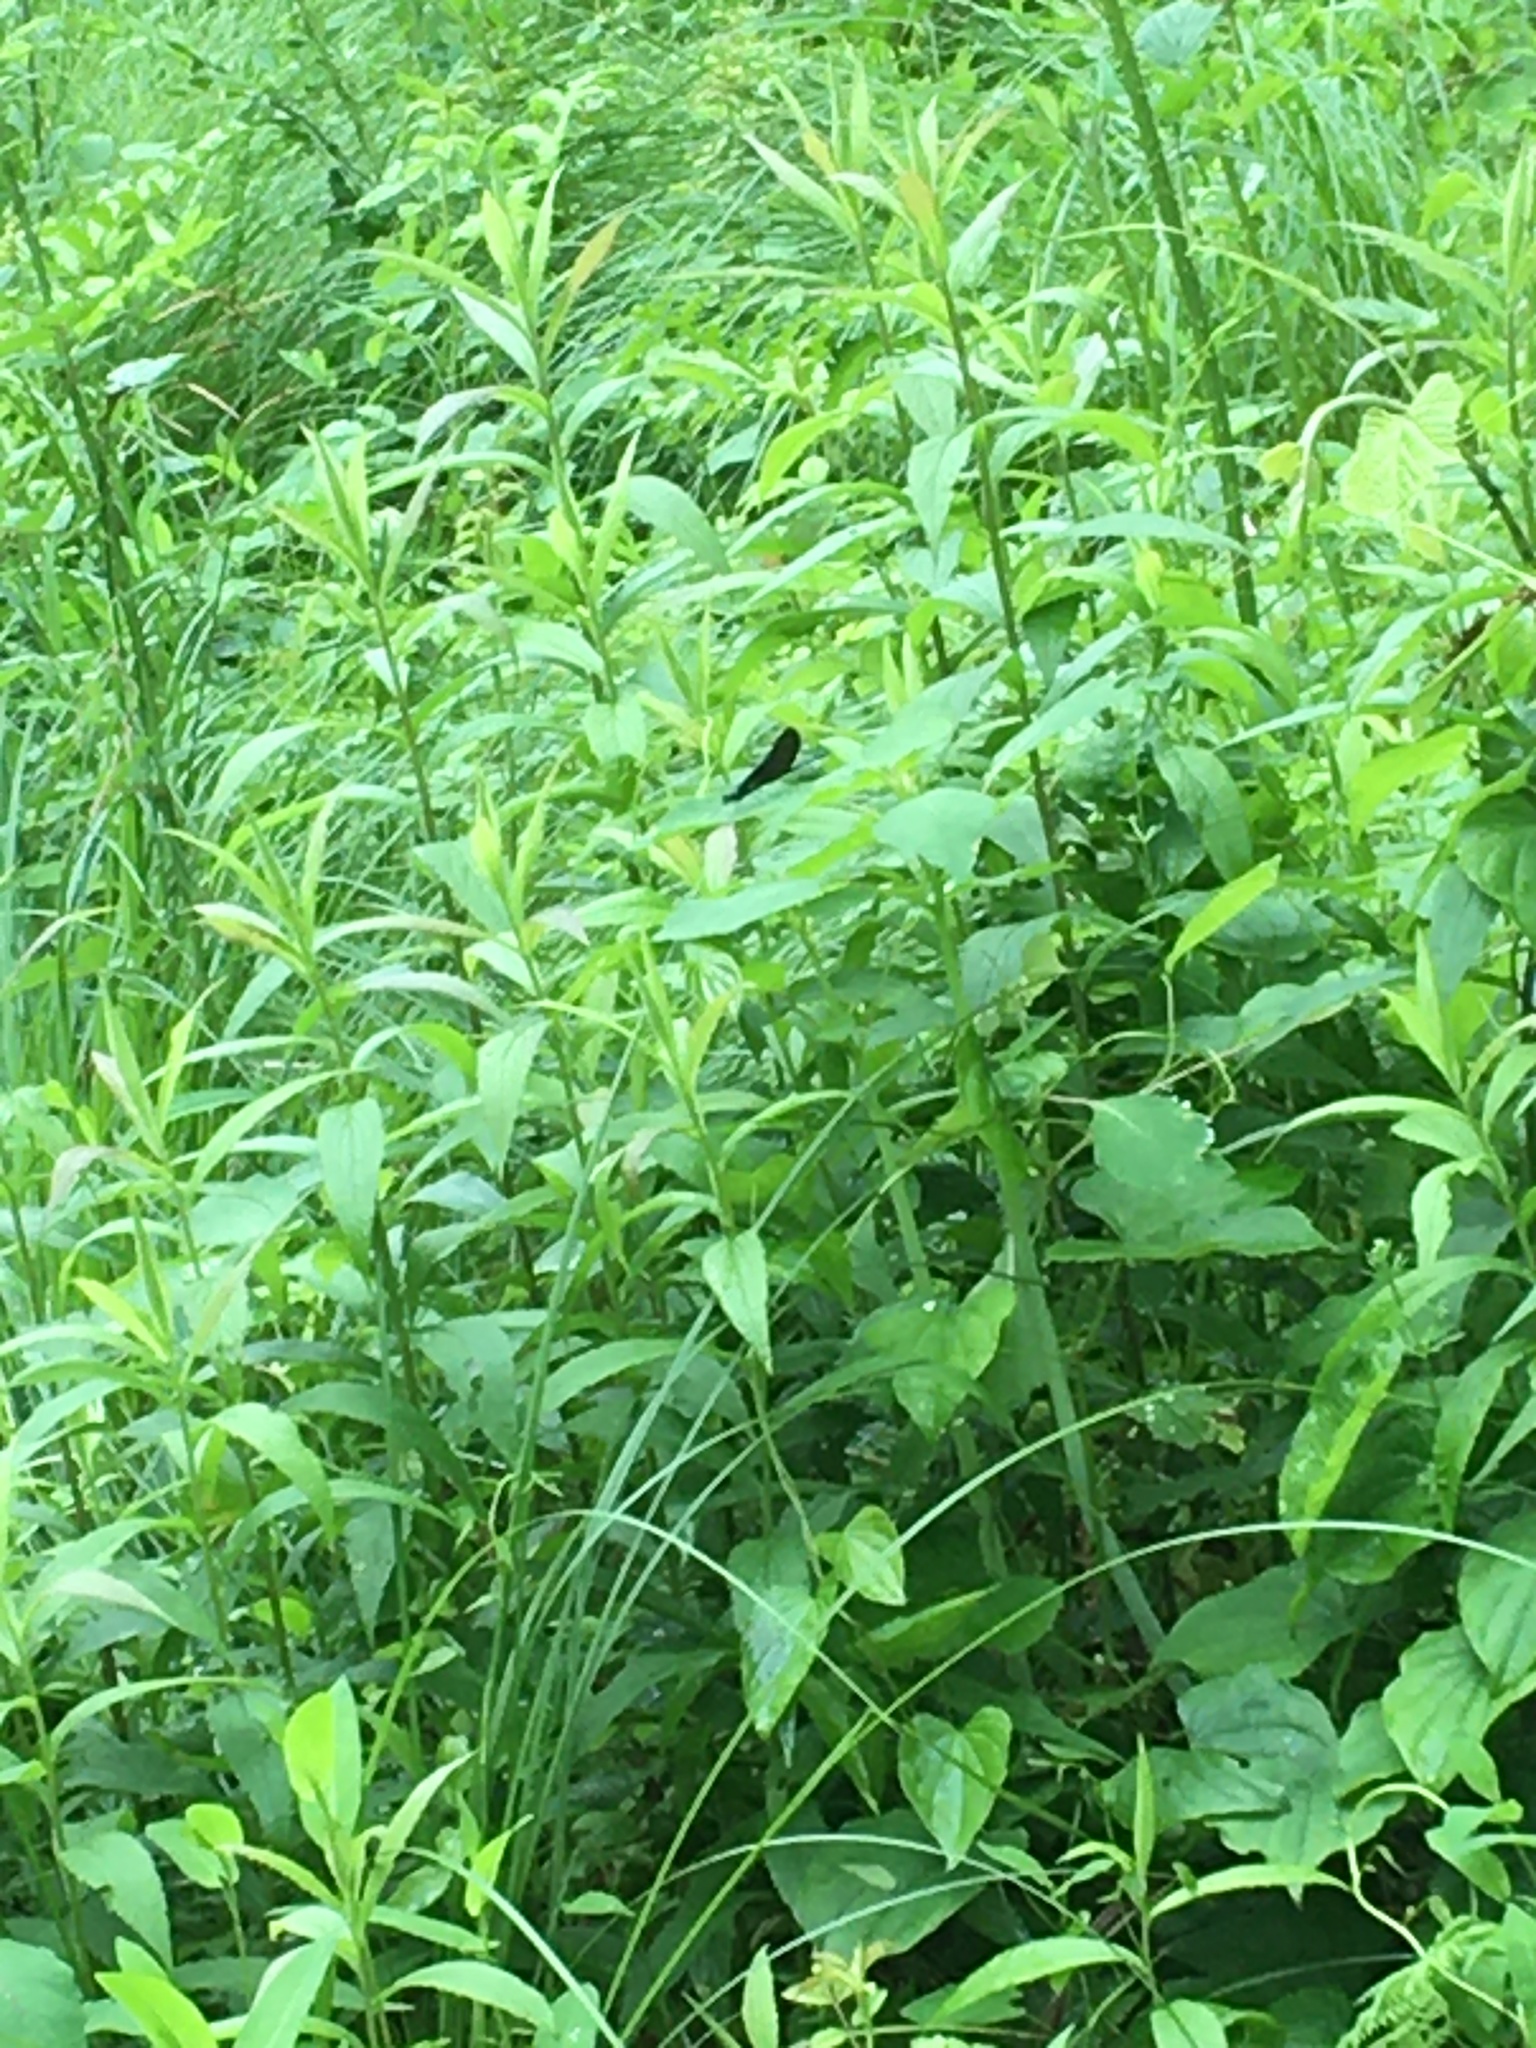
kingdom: Animalia
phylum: Arthropoda
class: Insecta
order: Odonata
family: Calopterygidae
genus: Calopteryx
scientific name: Calopteryx maculata
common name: Ebony jewelwing
